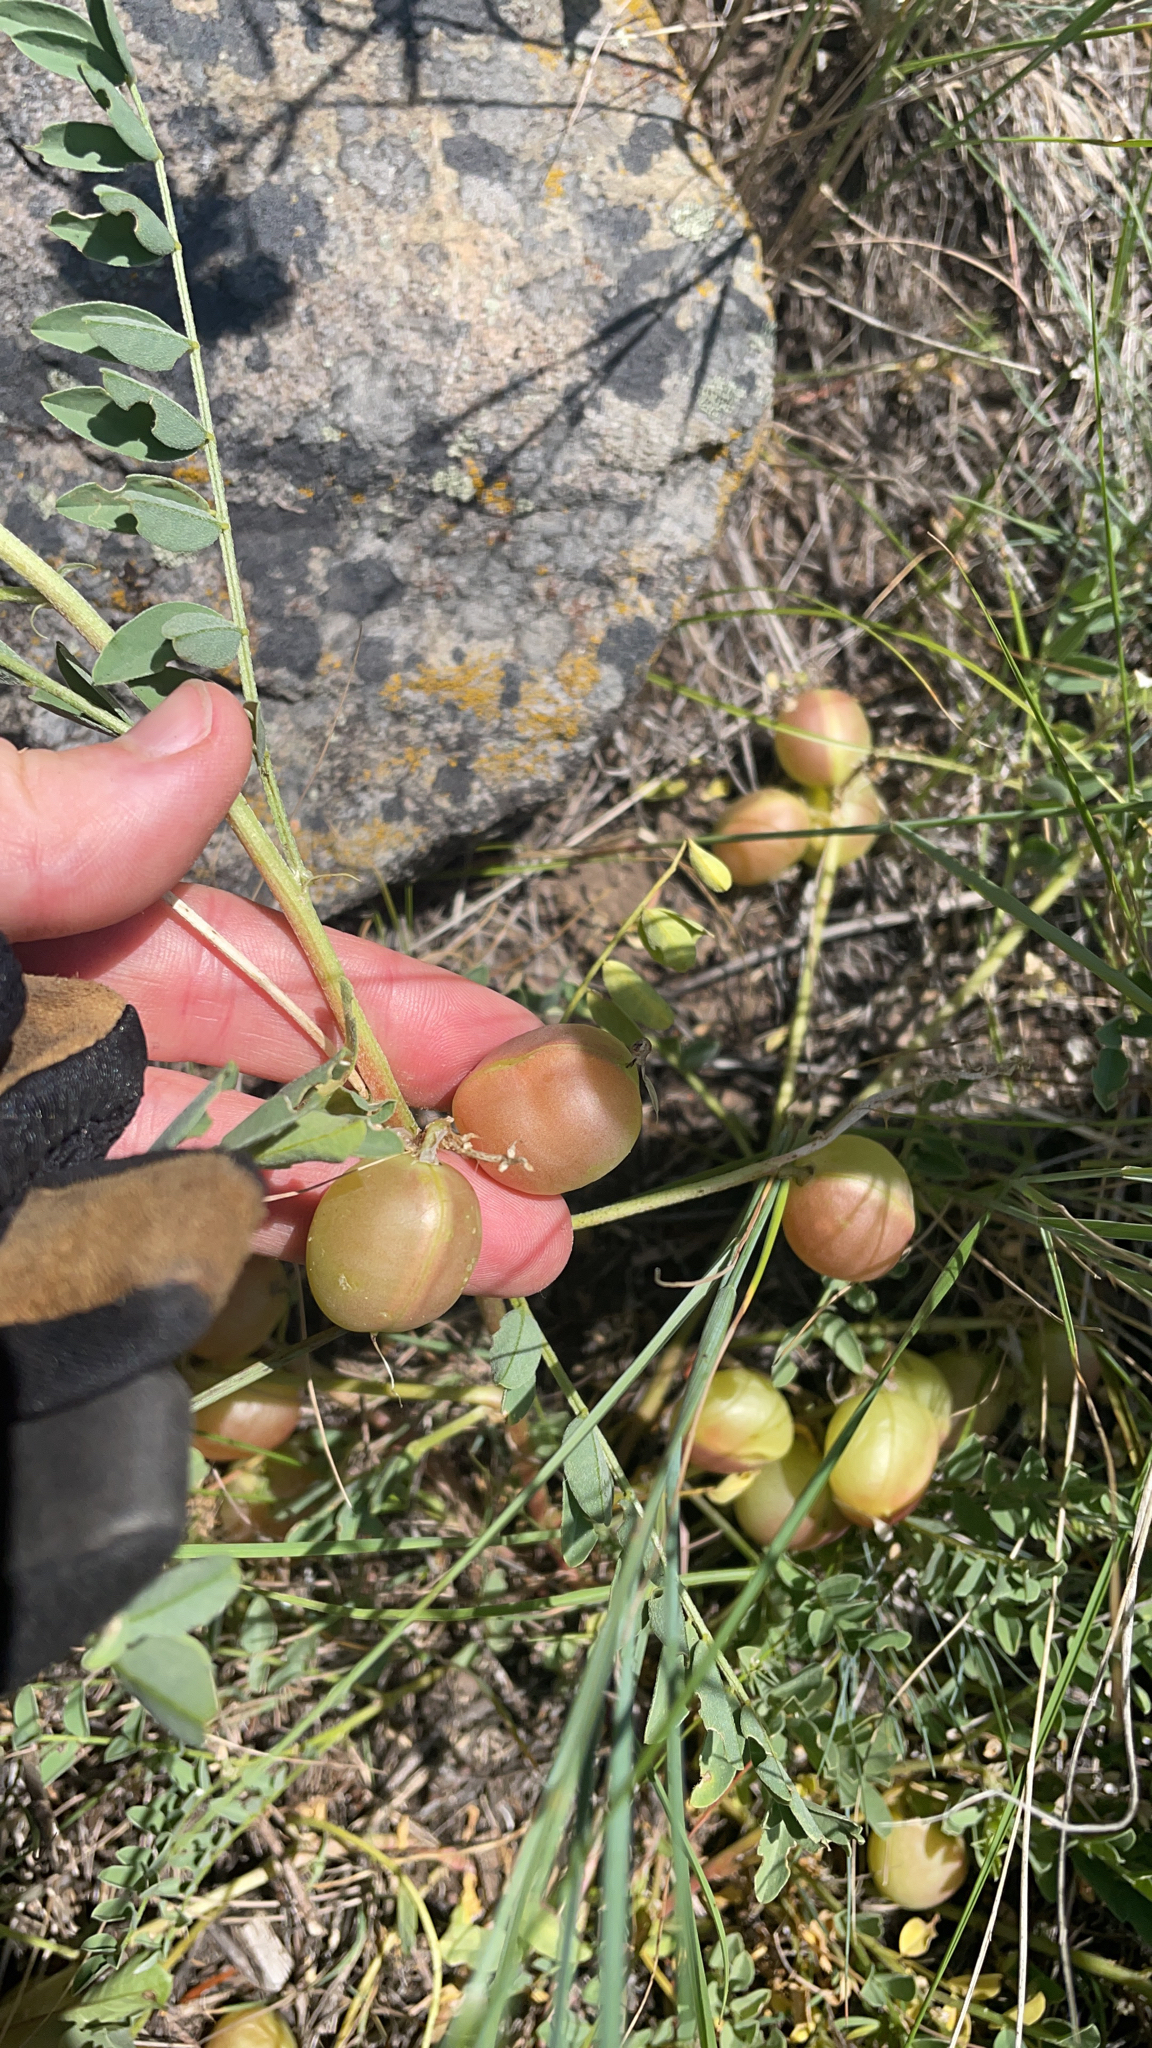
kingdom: Plantae
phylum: Tracheophyta
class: Magnoliopsida
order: Fabales
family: Fabaceae
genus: Astragalus
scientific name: Astragalus crassicarpus
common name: Ground-plum milk-vetch
